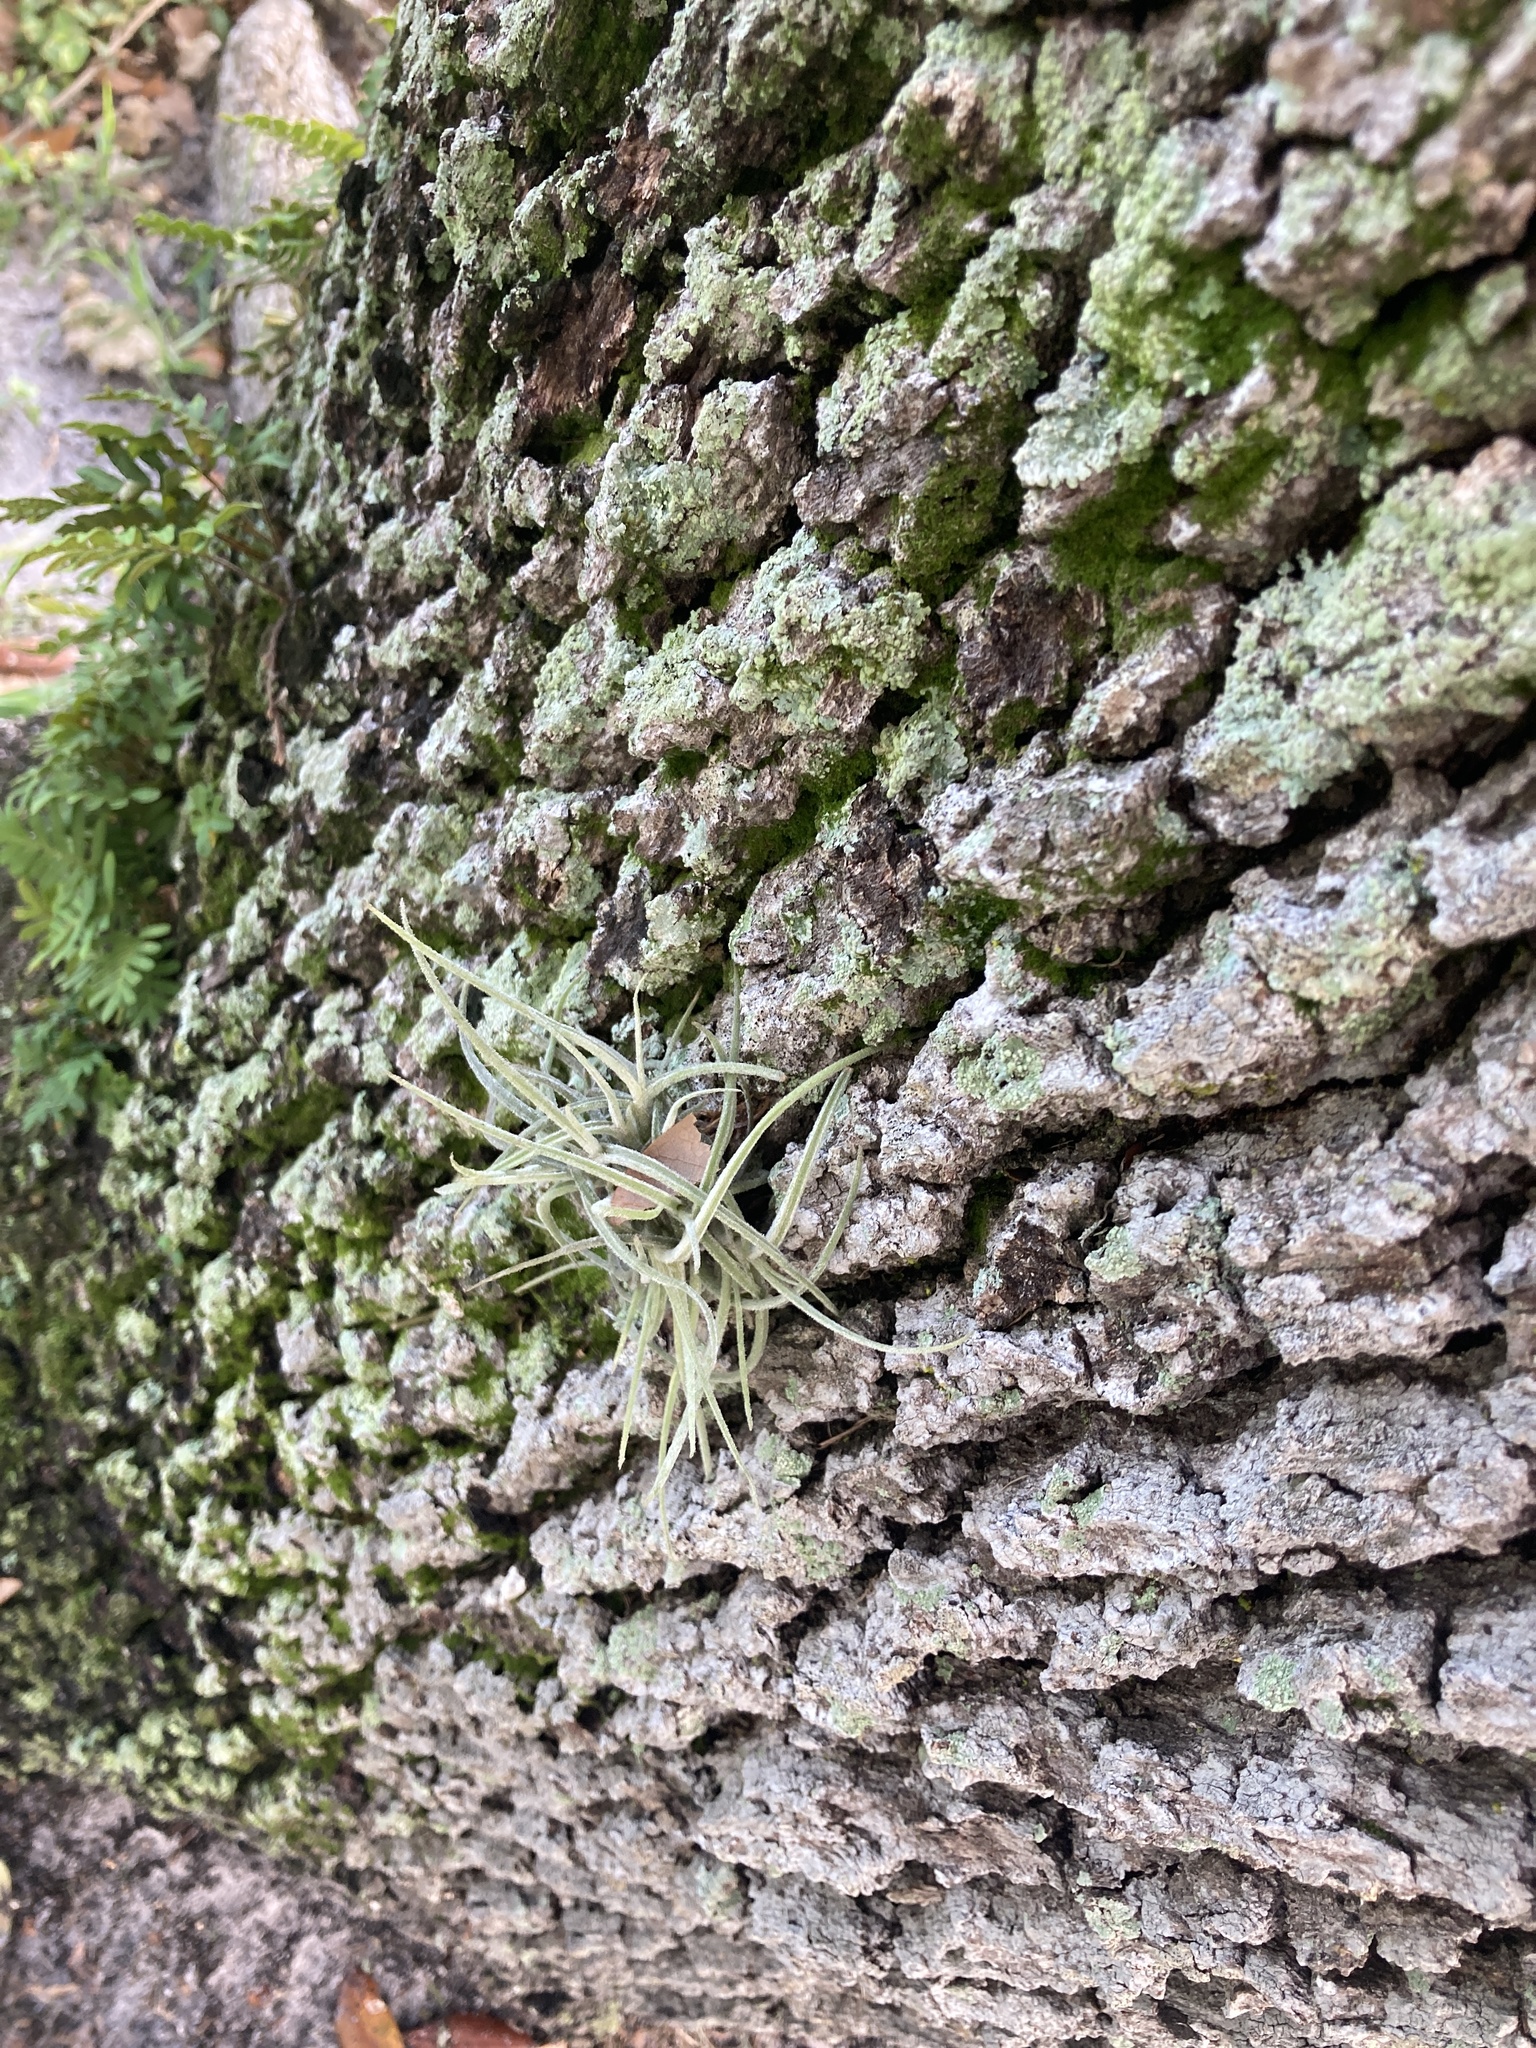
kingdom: Plantae
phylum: Tracheophyta
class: Liliopsida
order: Poales
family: Bromeliaceae
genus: Tillandsia
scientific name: Tillandsia recurvata
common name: Small ballmoss
